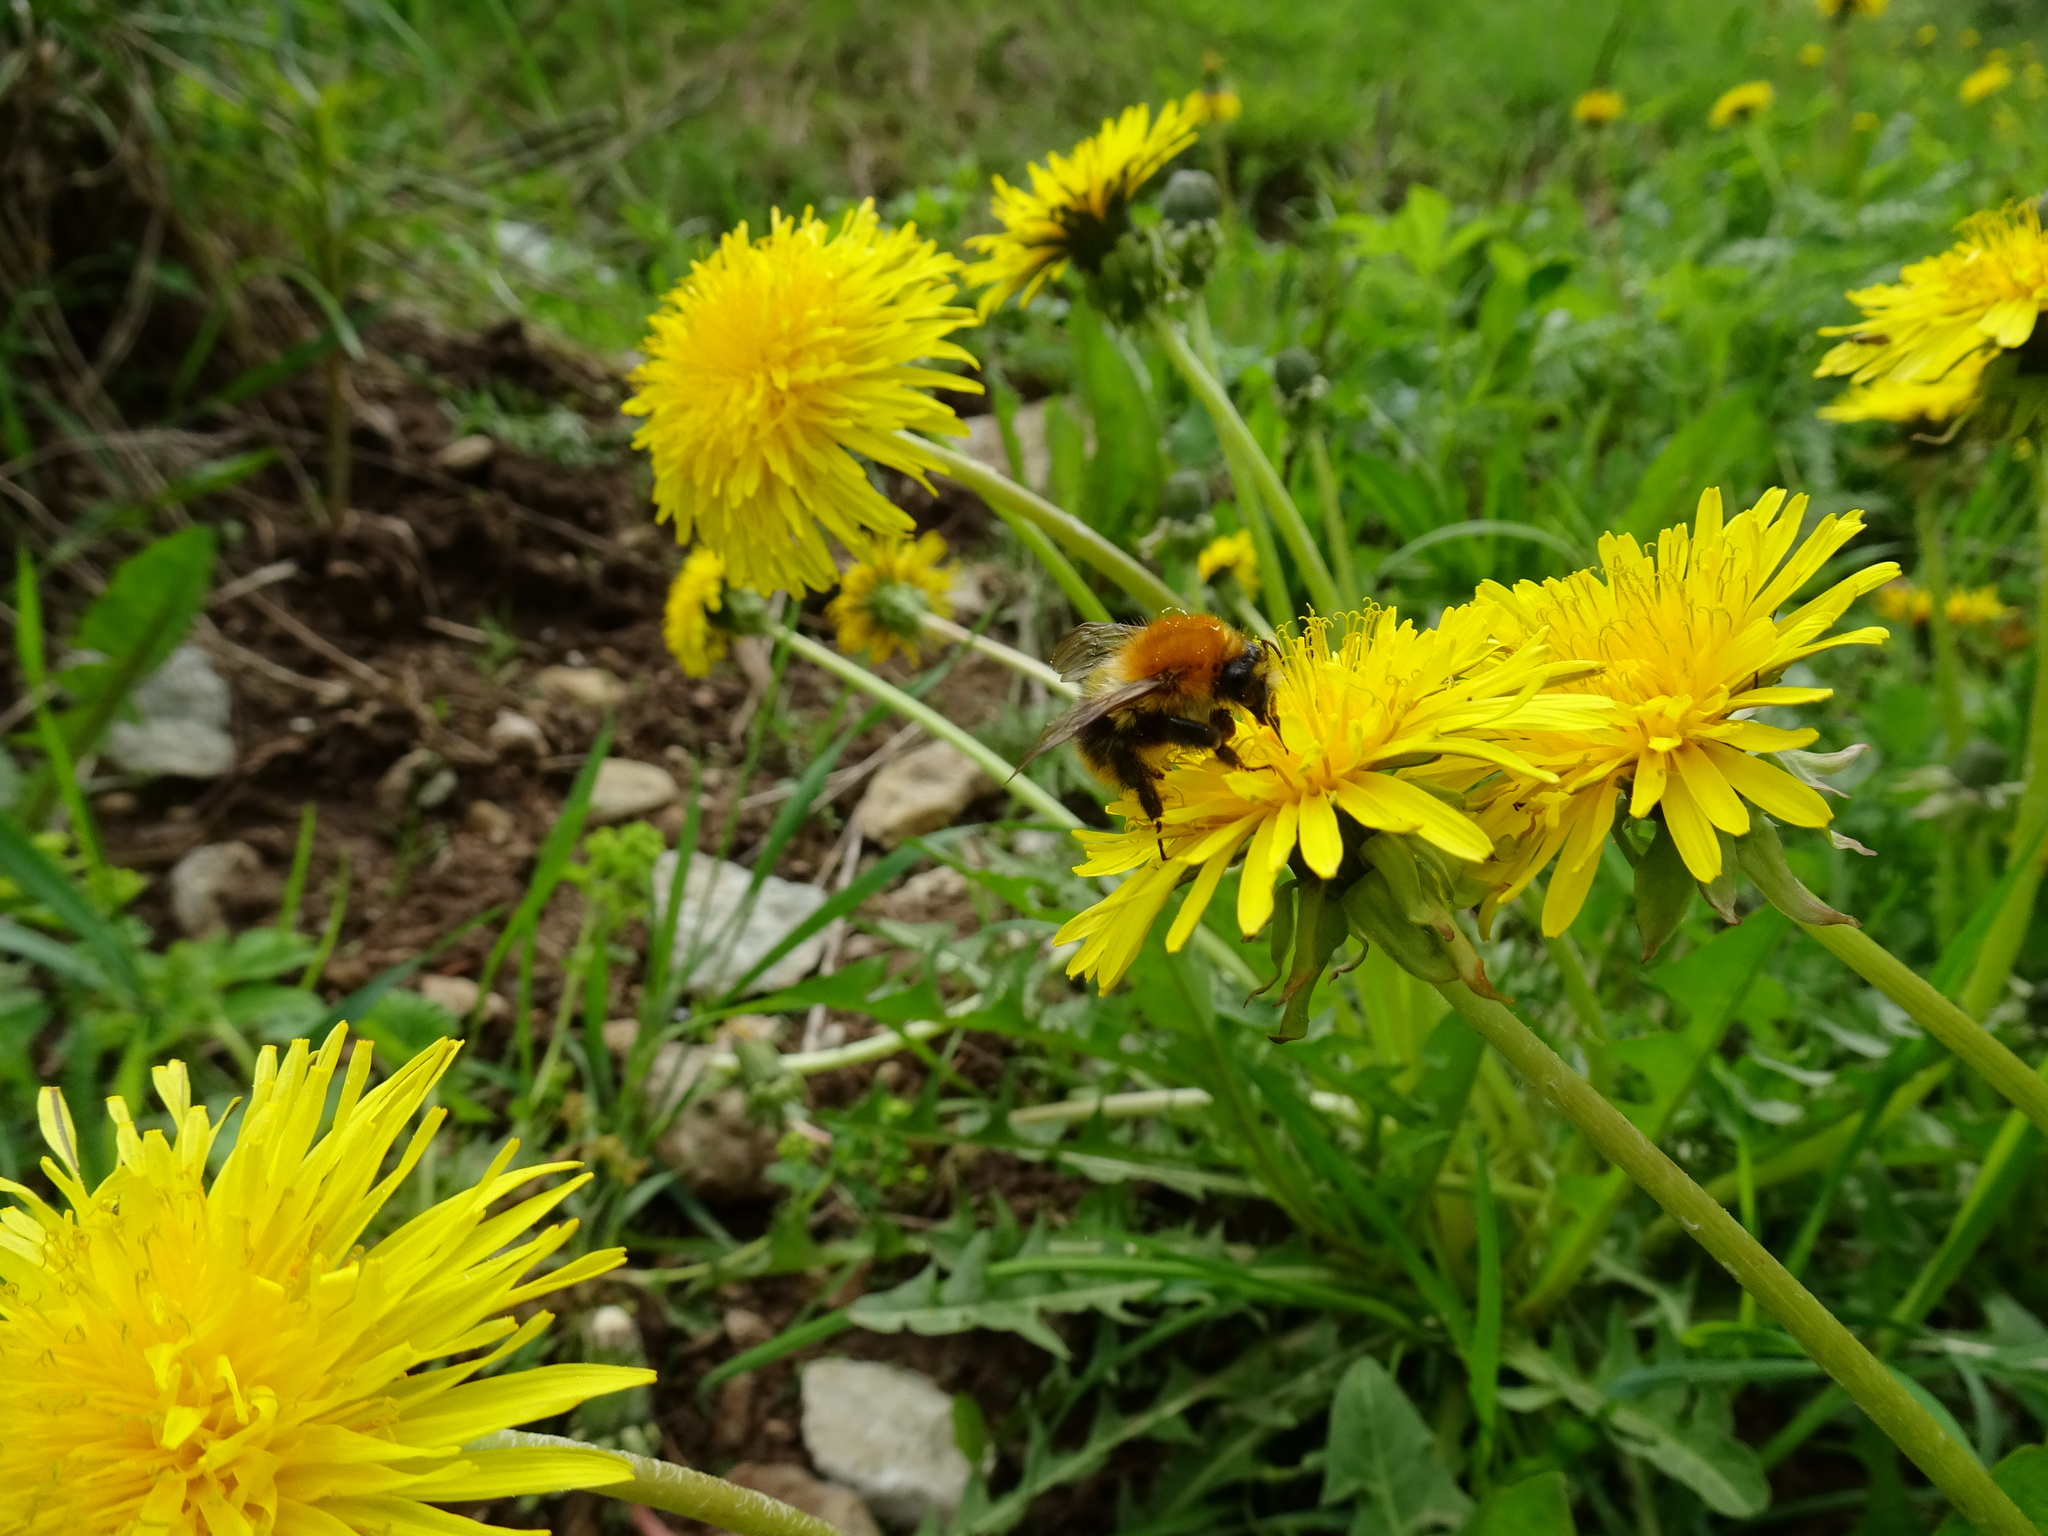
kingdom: Animalia
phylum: Arthropoda
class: Insecta
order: Hymenoptera
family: Apidae
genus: Bombus
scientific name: Bombus pascuorum
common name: Common carder bee
